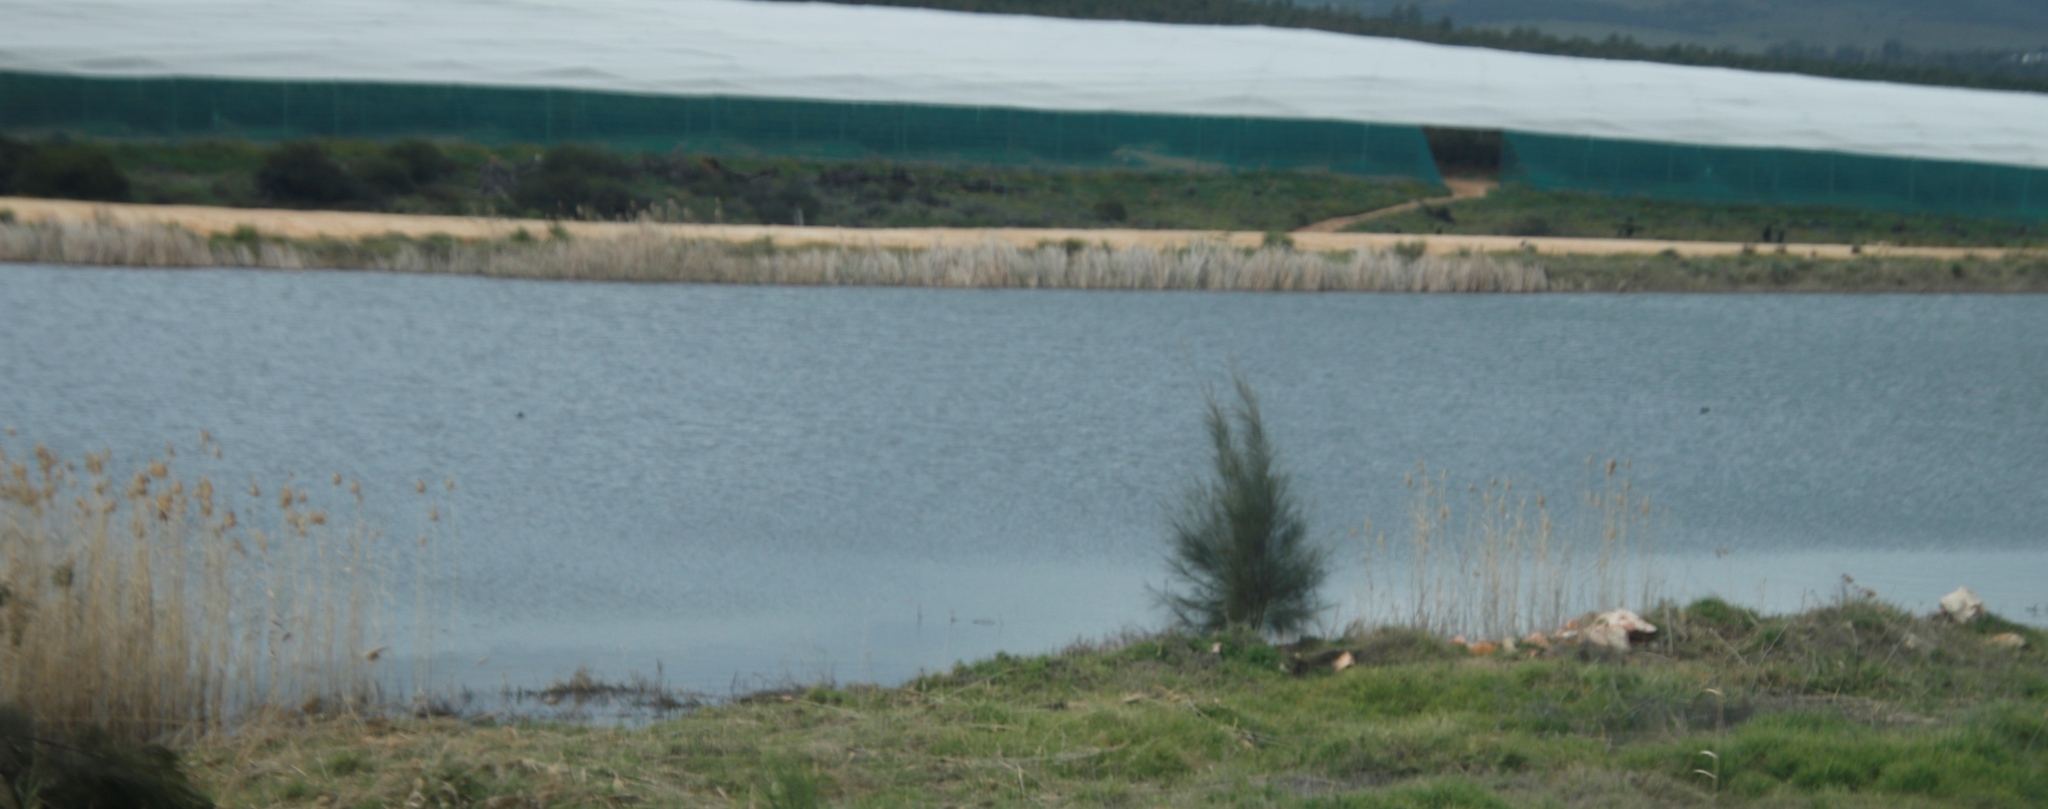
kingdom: Plantae
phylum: Tracheophyta
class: Magnoliopsida
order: Fagales
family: Casuarinaceae
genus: Casuarina
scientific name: Casuarina cunninghamiana
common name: River sheoak
